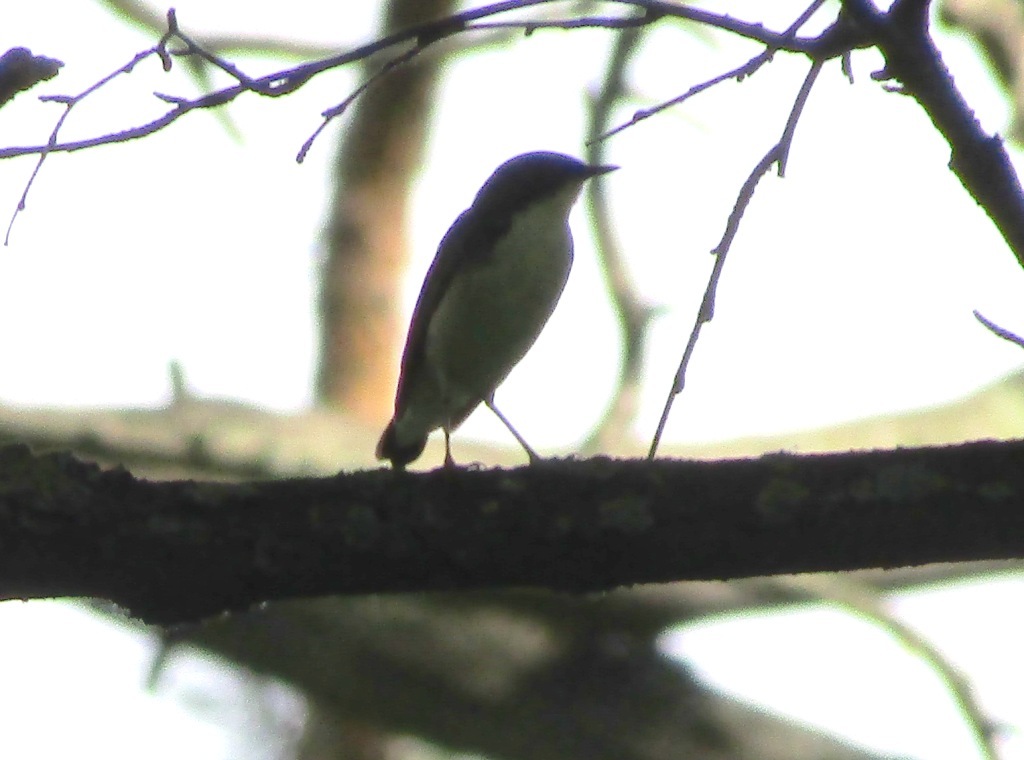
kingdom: Animalia
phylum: Chordata
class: Aves
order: Passeriformes
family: Muscicapidae
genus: Luscinia
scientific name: Luscinia cyane
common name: Siberian blue robin
